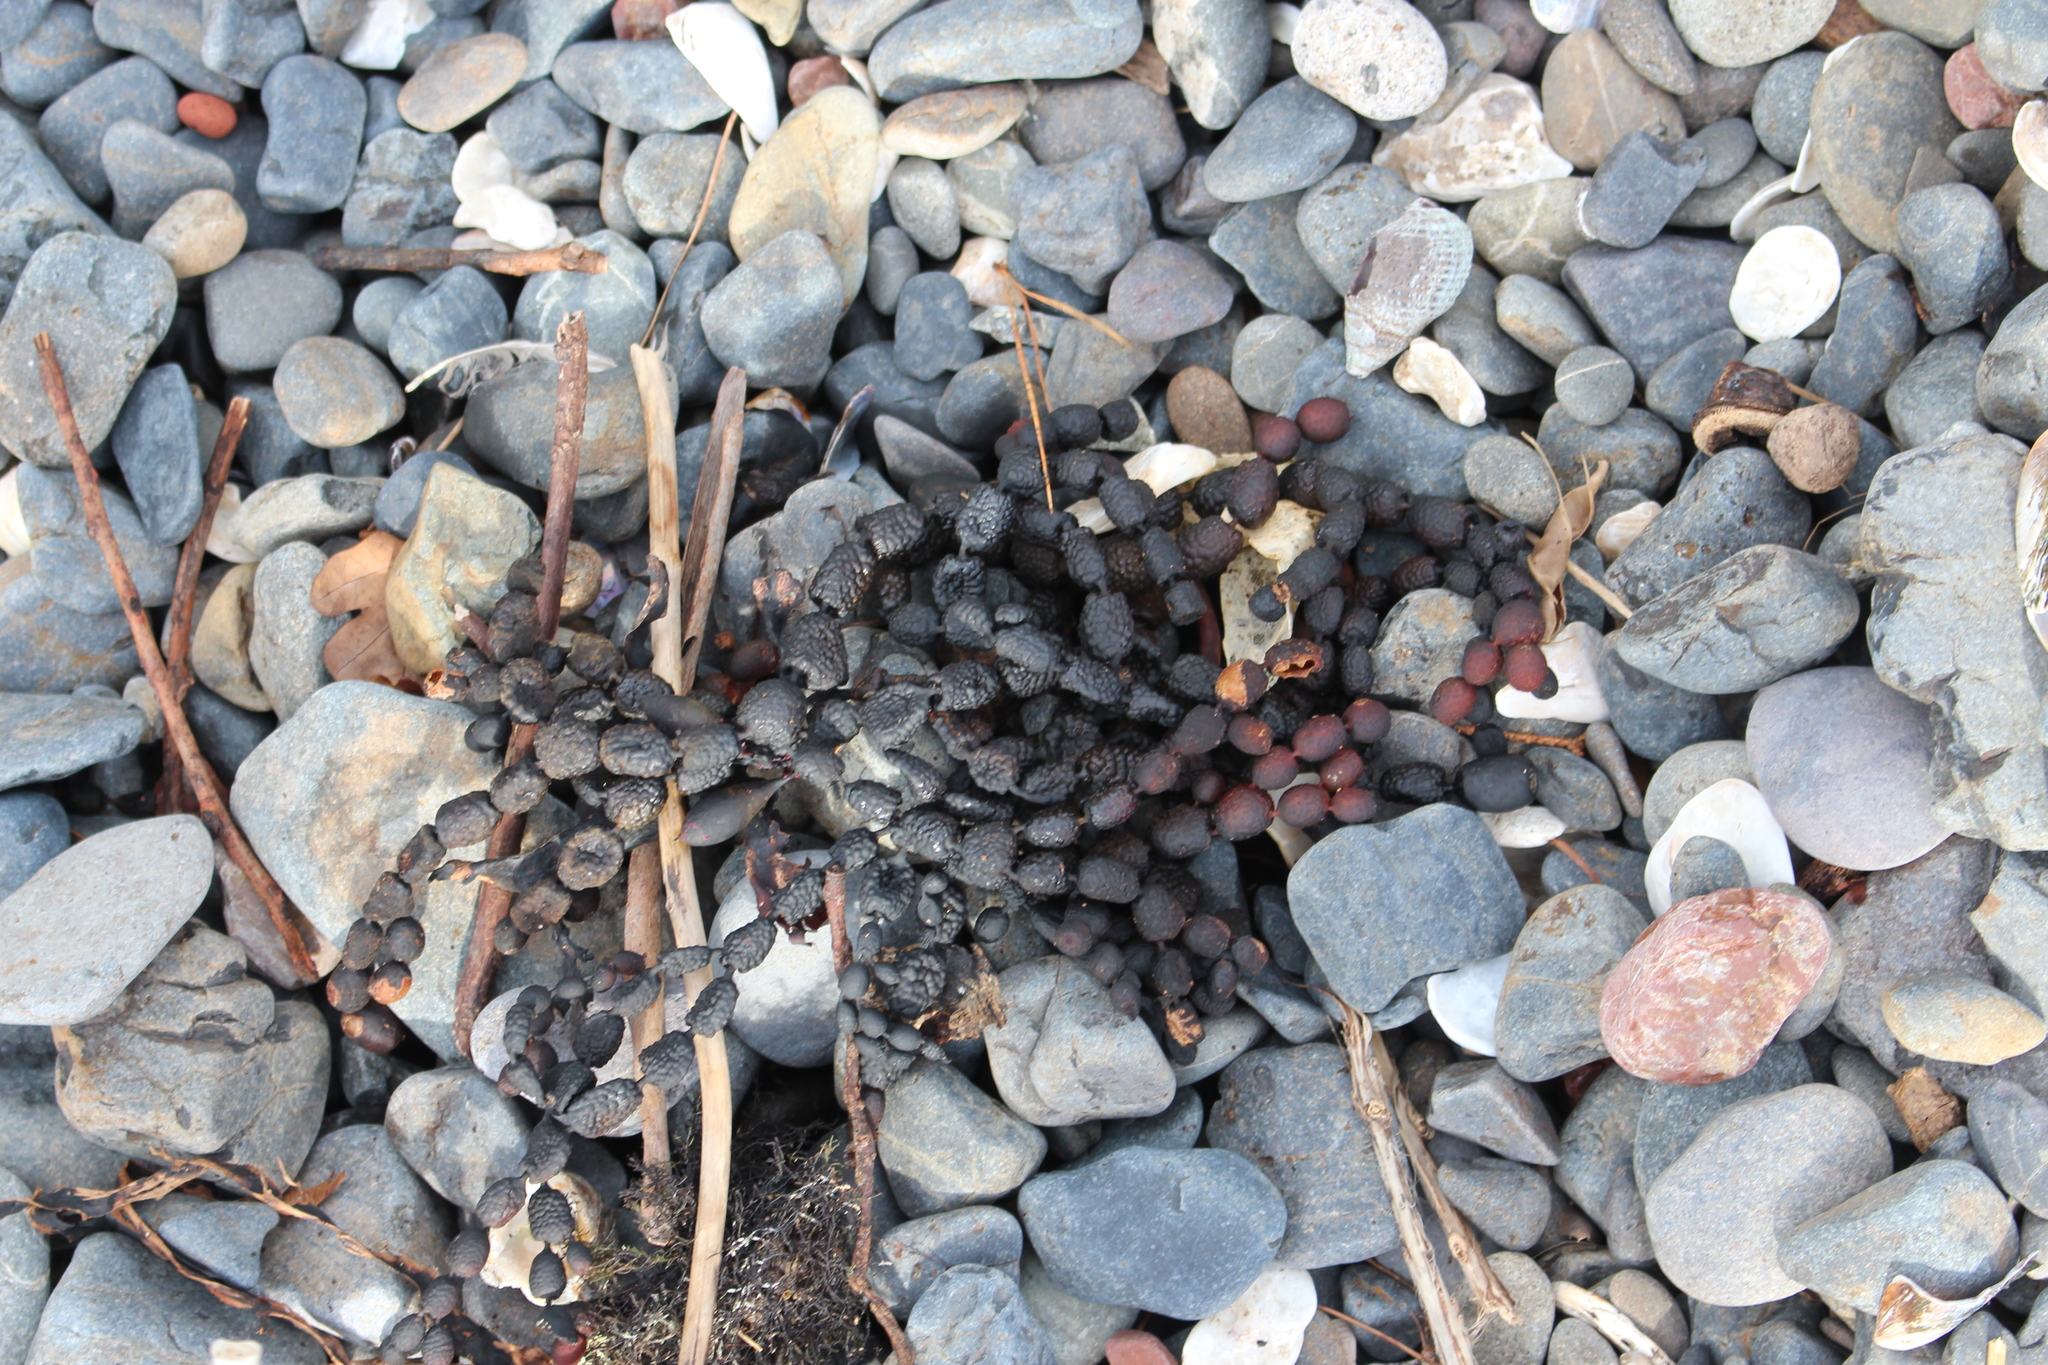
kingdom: Chromista
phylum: Ochrophyta
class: Phaeophyceae
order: Fucales
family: Hormosiraceae
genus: Hormosira
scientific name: Hormosira banksii
